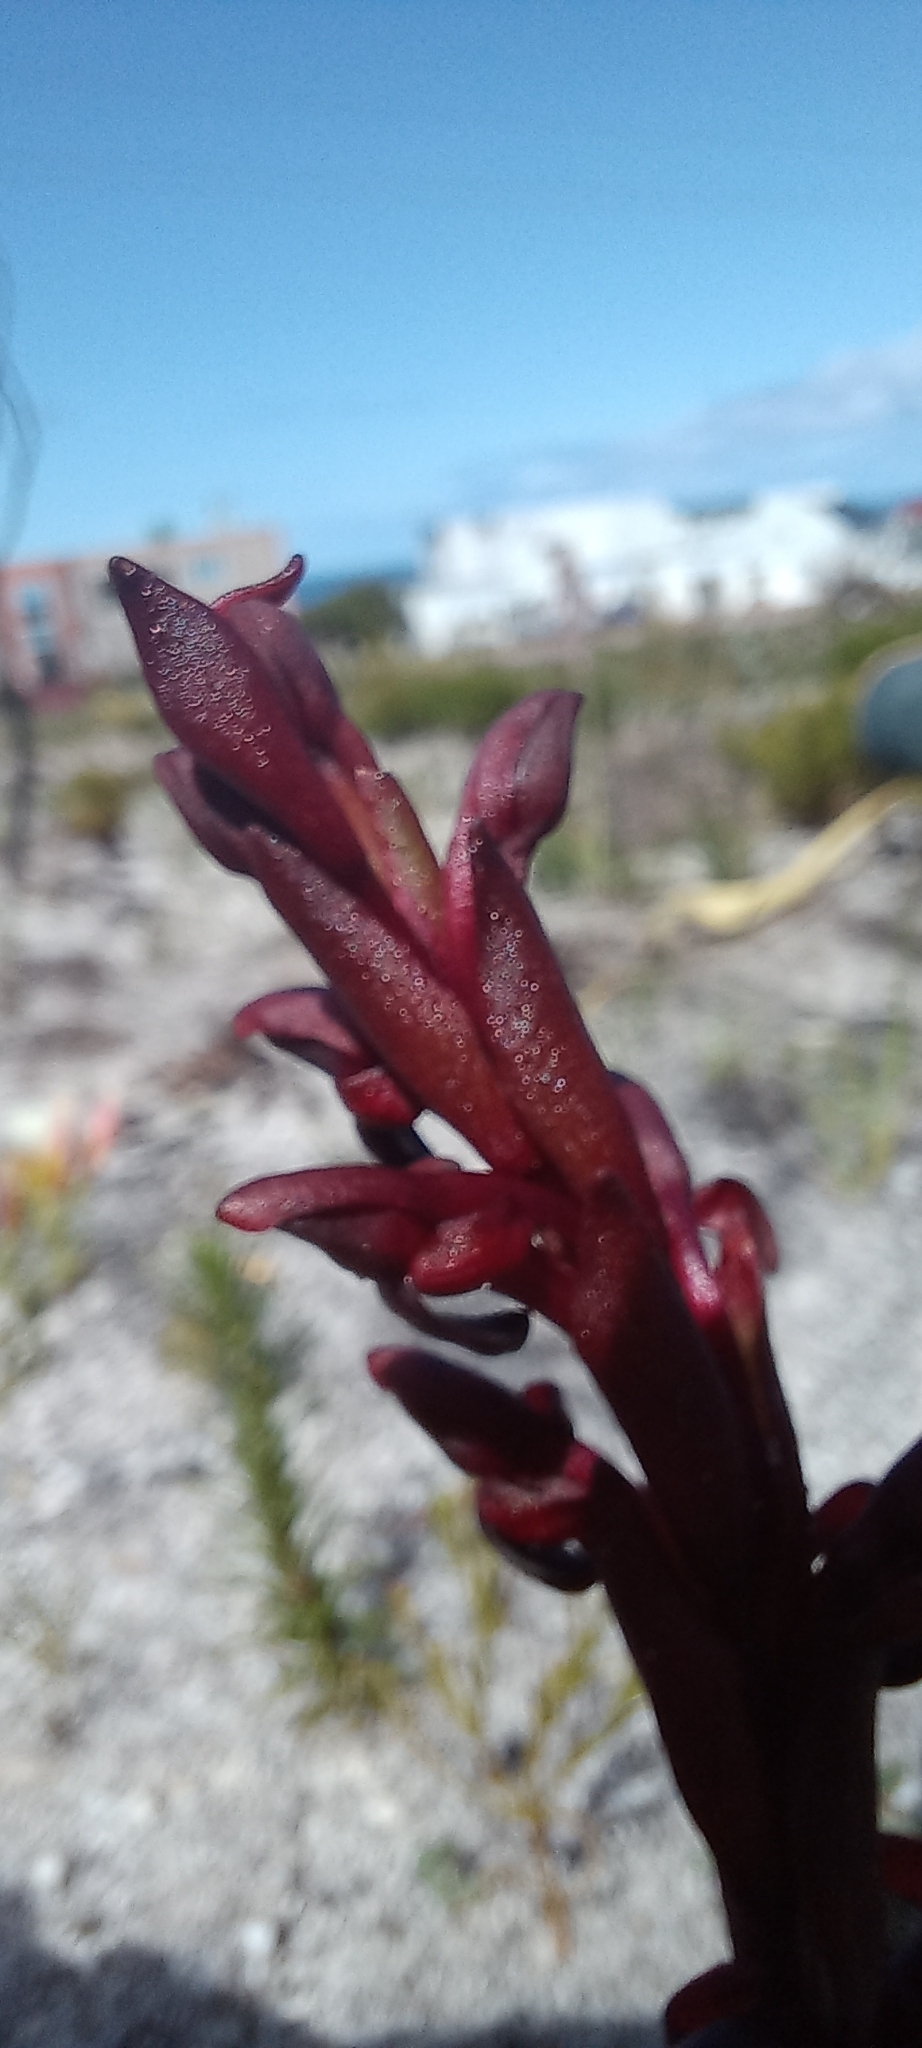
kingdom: Plantae
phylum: Tracheophyta
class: Liliopsida
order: Asparagales
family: Orchidaceae
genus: Disa
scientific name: Disa atrorubens
